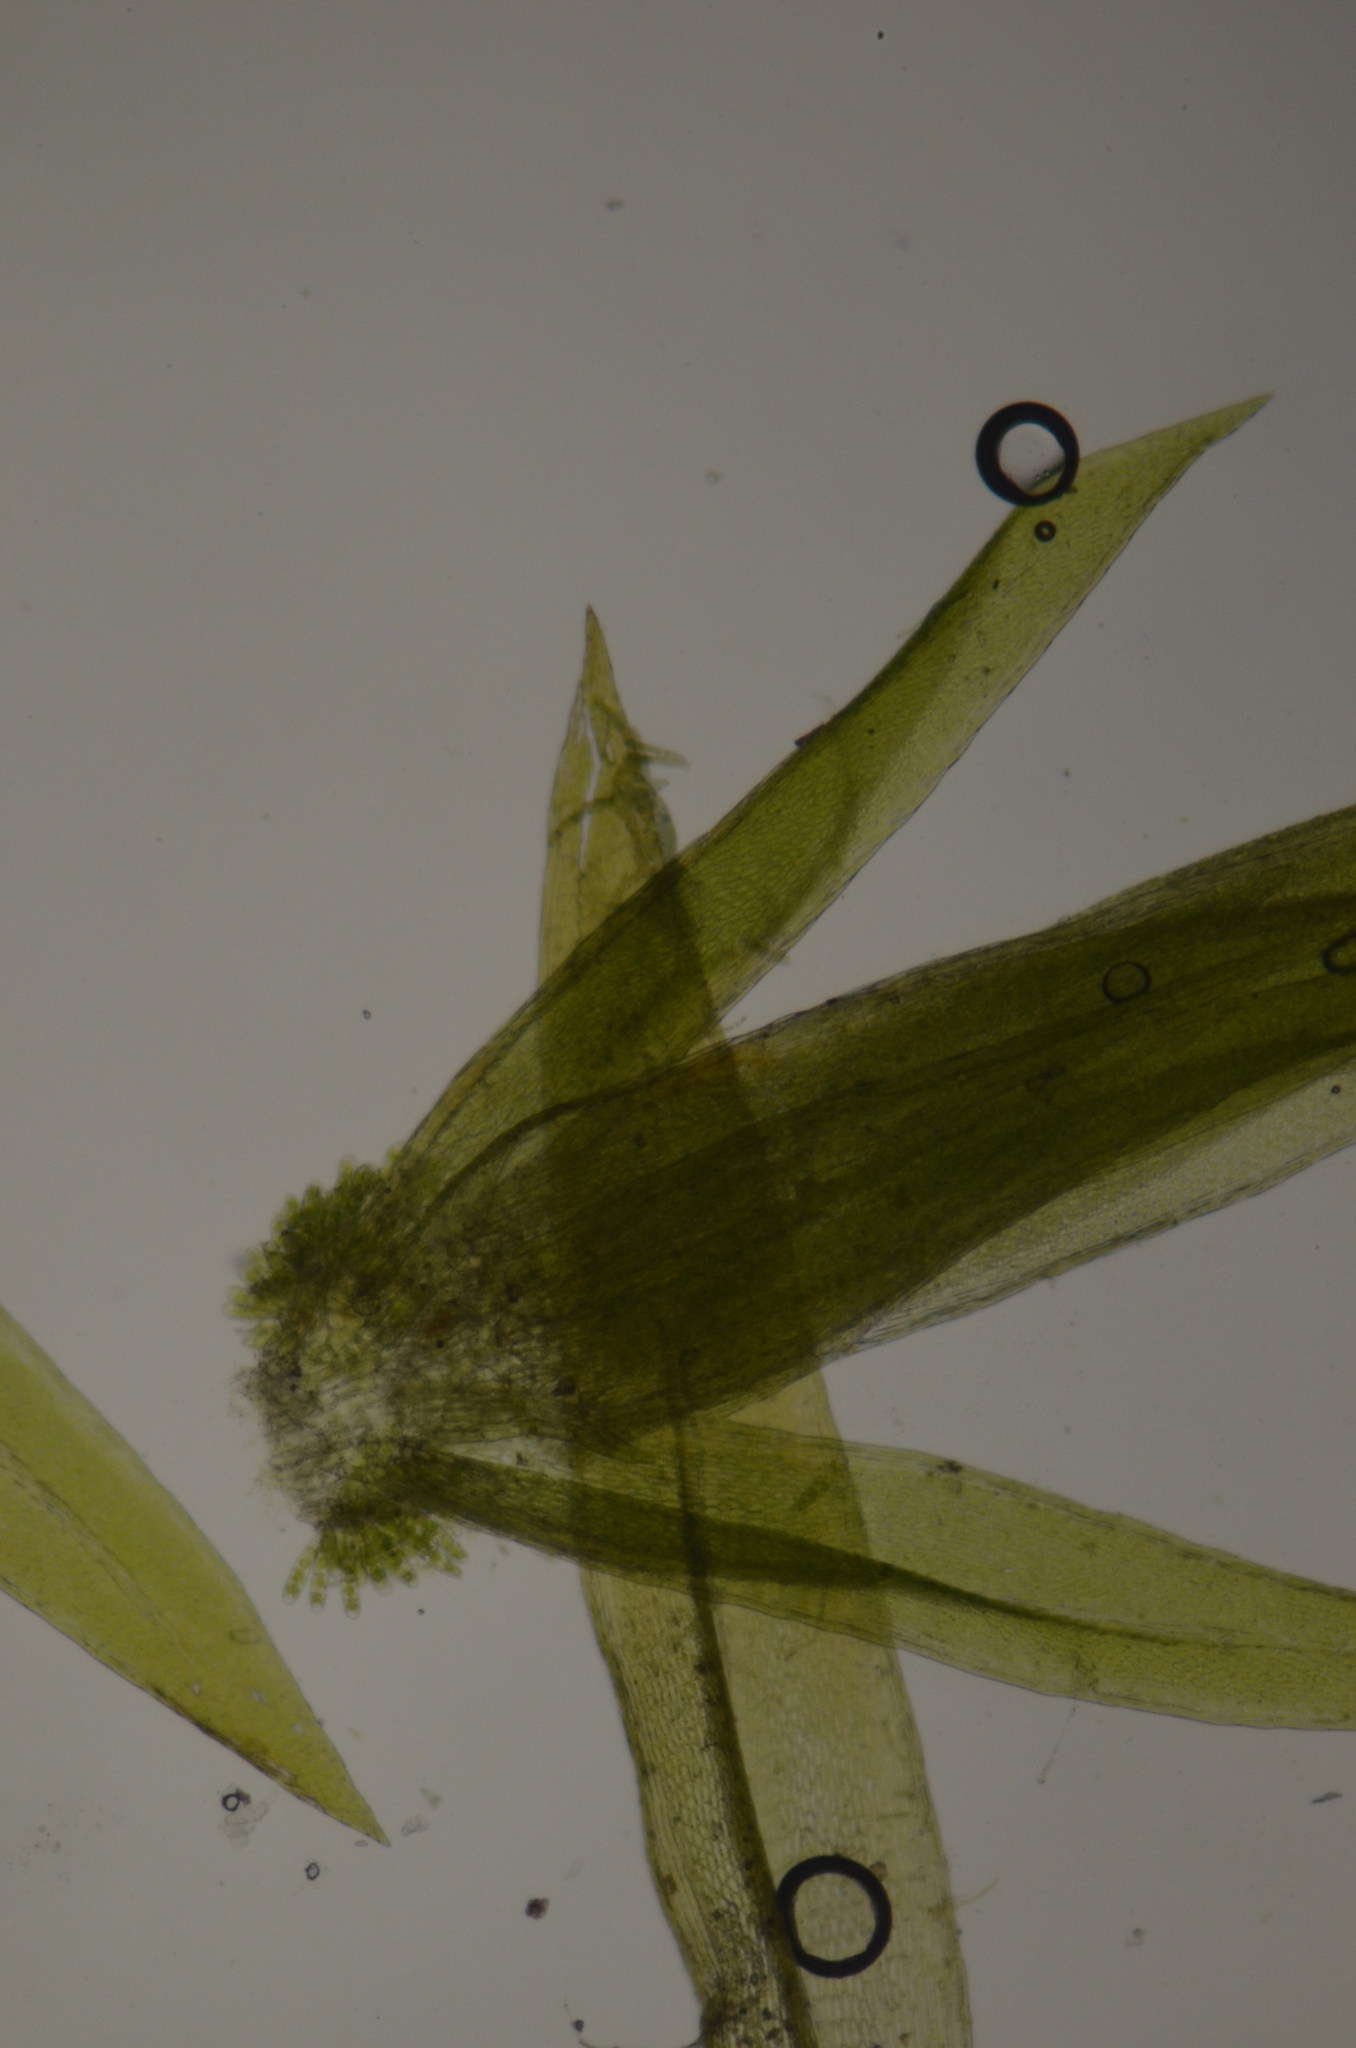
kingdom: Plantae
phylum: Bryophyta
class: Bryopsida
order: Hookeriales
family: Daltoniaceae
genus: Daltonia
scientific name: Daltonia splachnoides
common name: Daltonia moss
